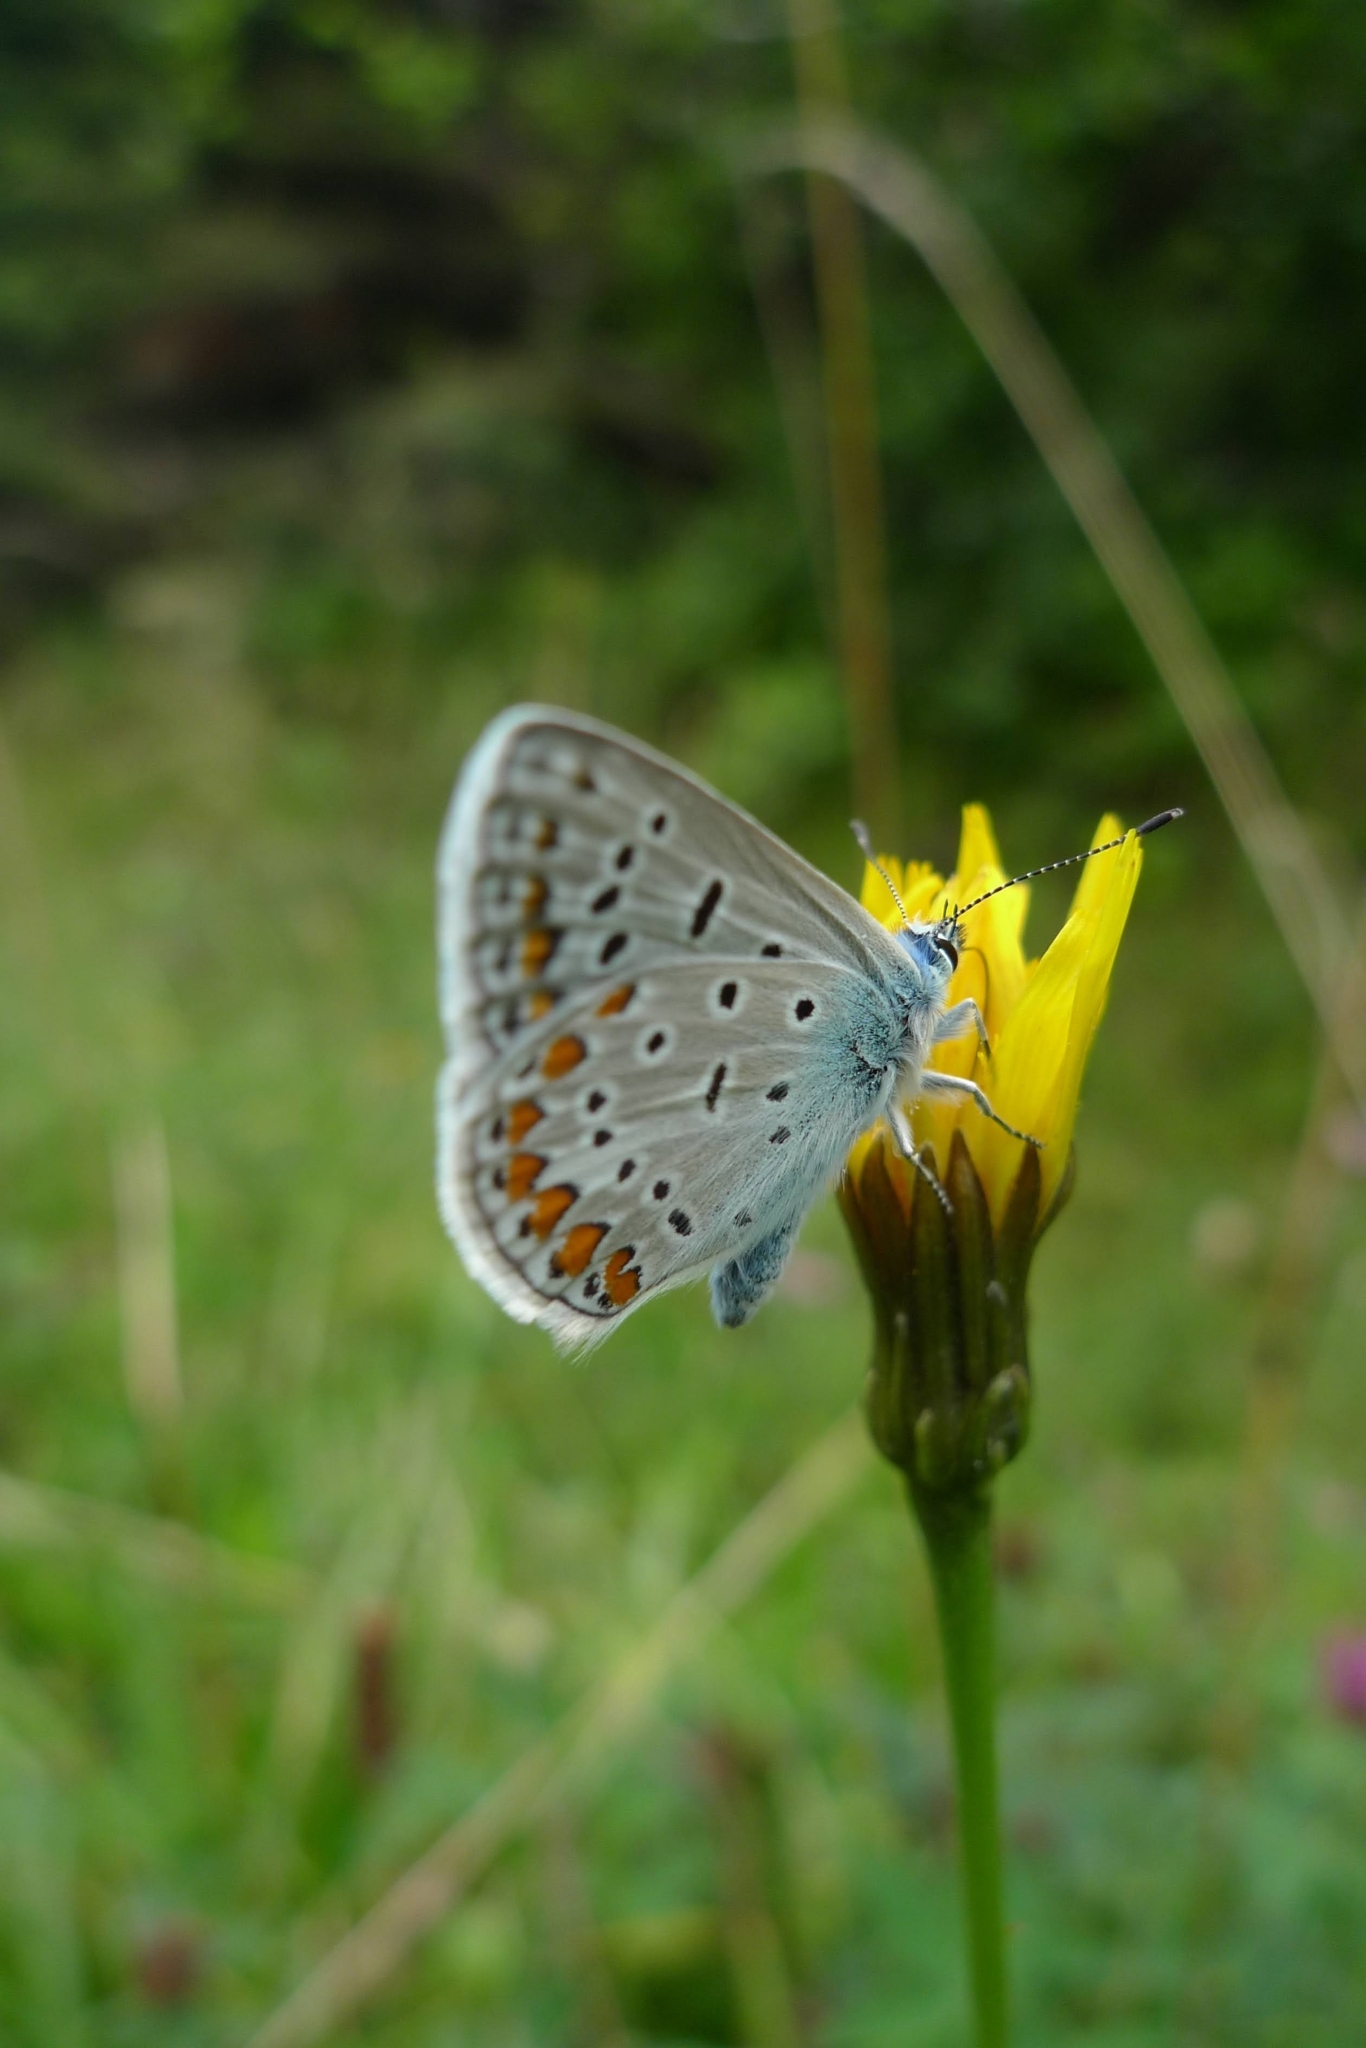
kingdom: Animalia
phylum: Arthropoda
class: Insecta
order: Lepidoptera
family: Lycaenidae
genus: Polyommatus
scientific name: Polyommatus icarus
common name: Common blue
